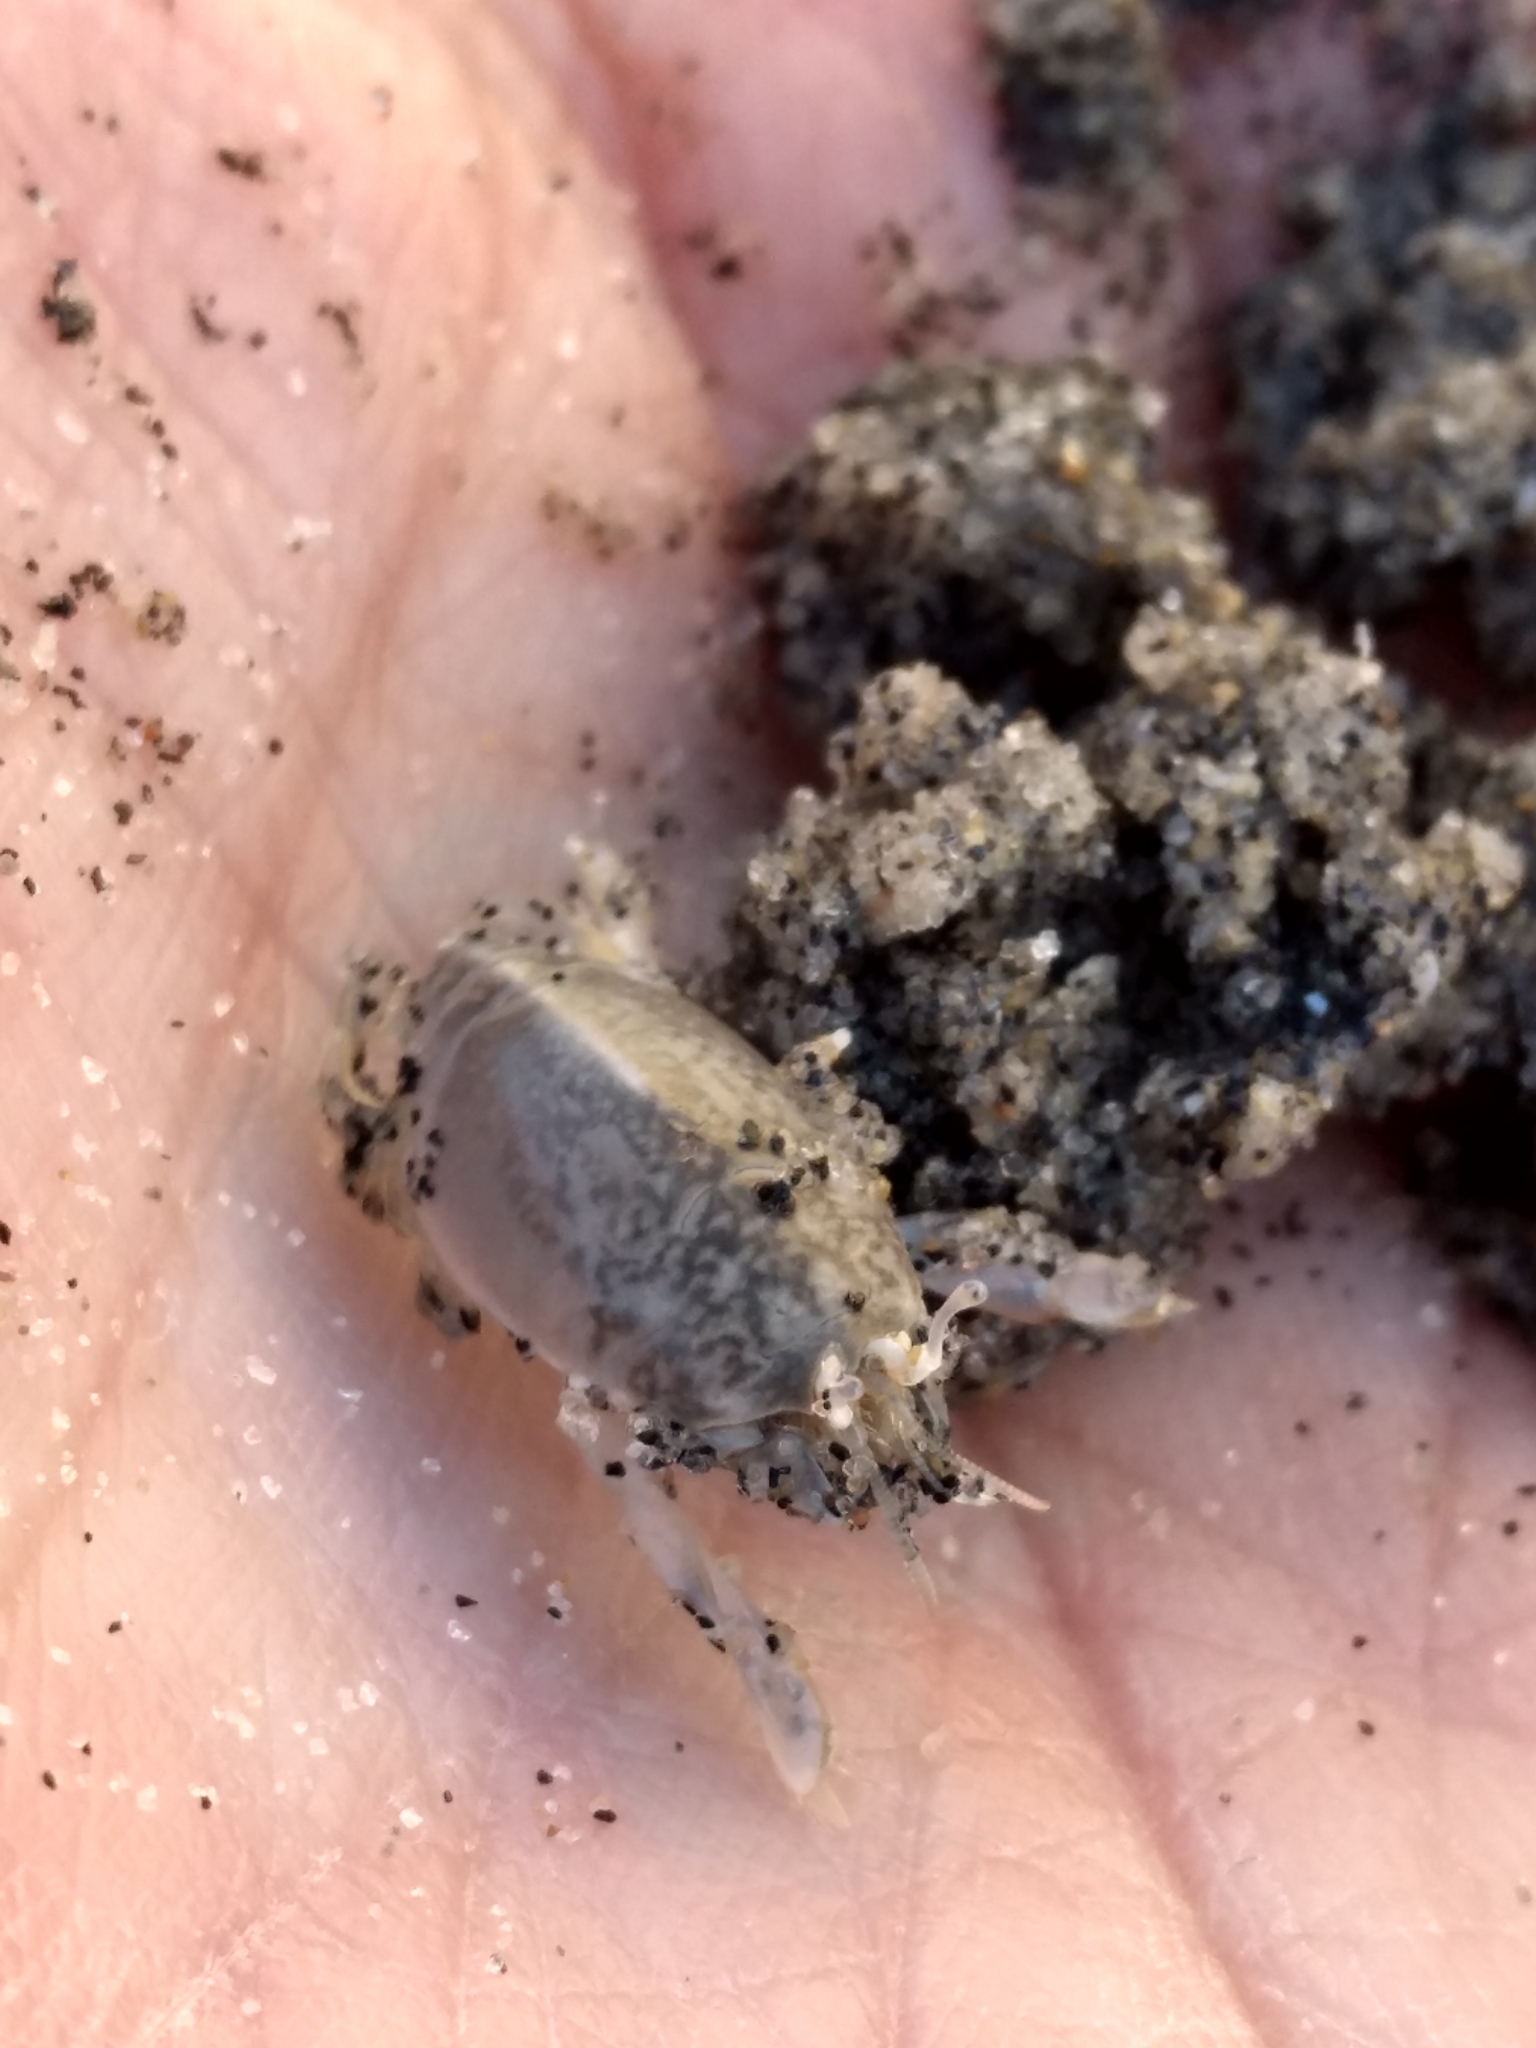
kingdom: Animalia
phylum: Arthropoda
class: Malacostraca
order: Decapoda
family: Hippidae
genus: Emerita
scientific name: Emerita analoga
